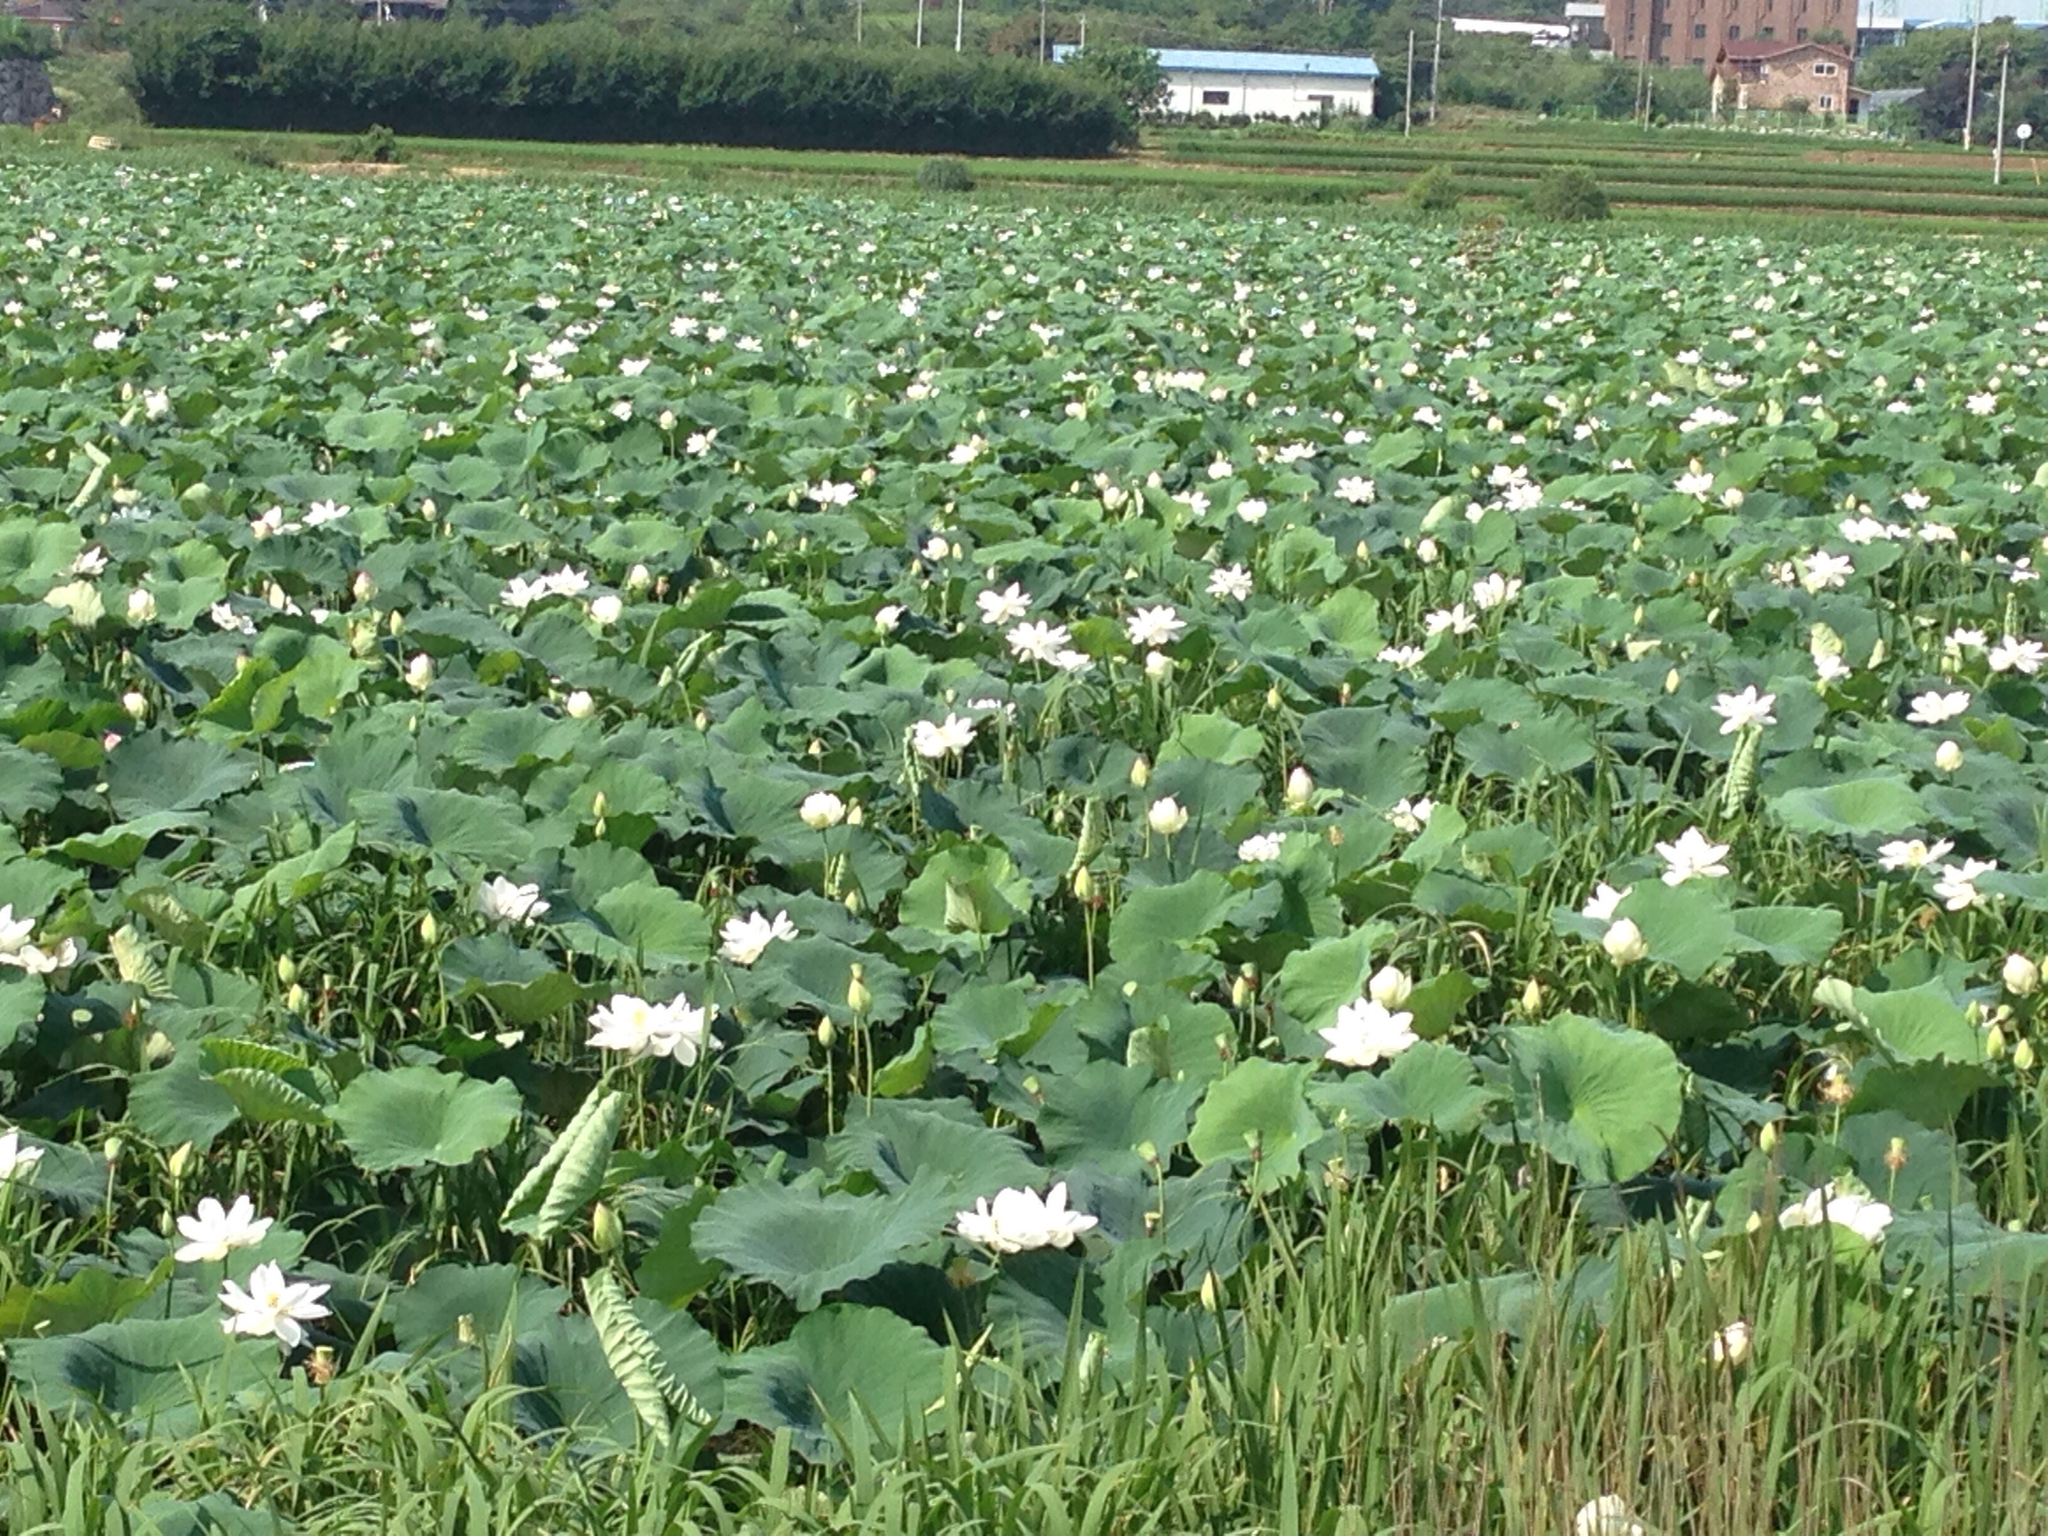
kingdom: Plantae
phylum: Tracheophyta
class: Magnoliopsida
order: Proteales
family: Nelumbonaceae
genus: Nelumbo
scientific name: Nelumbo nucifera
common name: Sacred lotus
